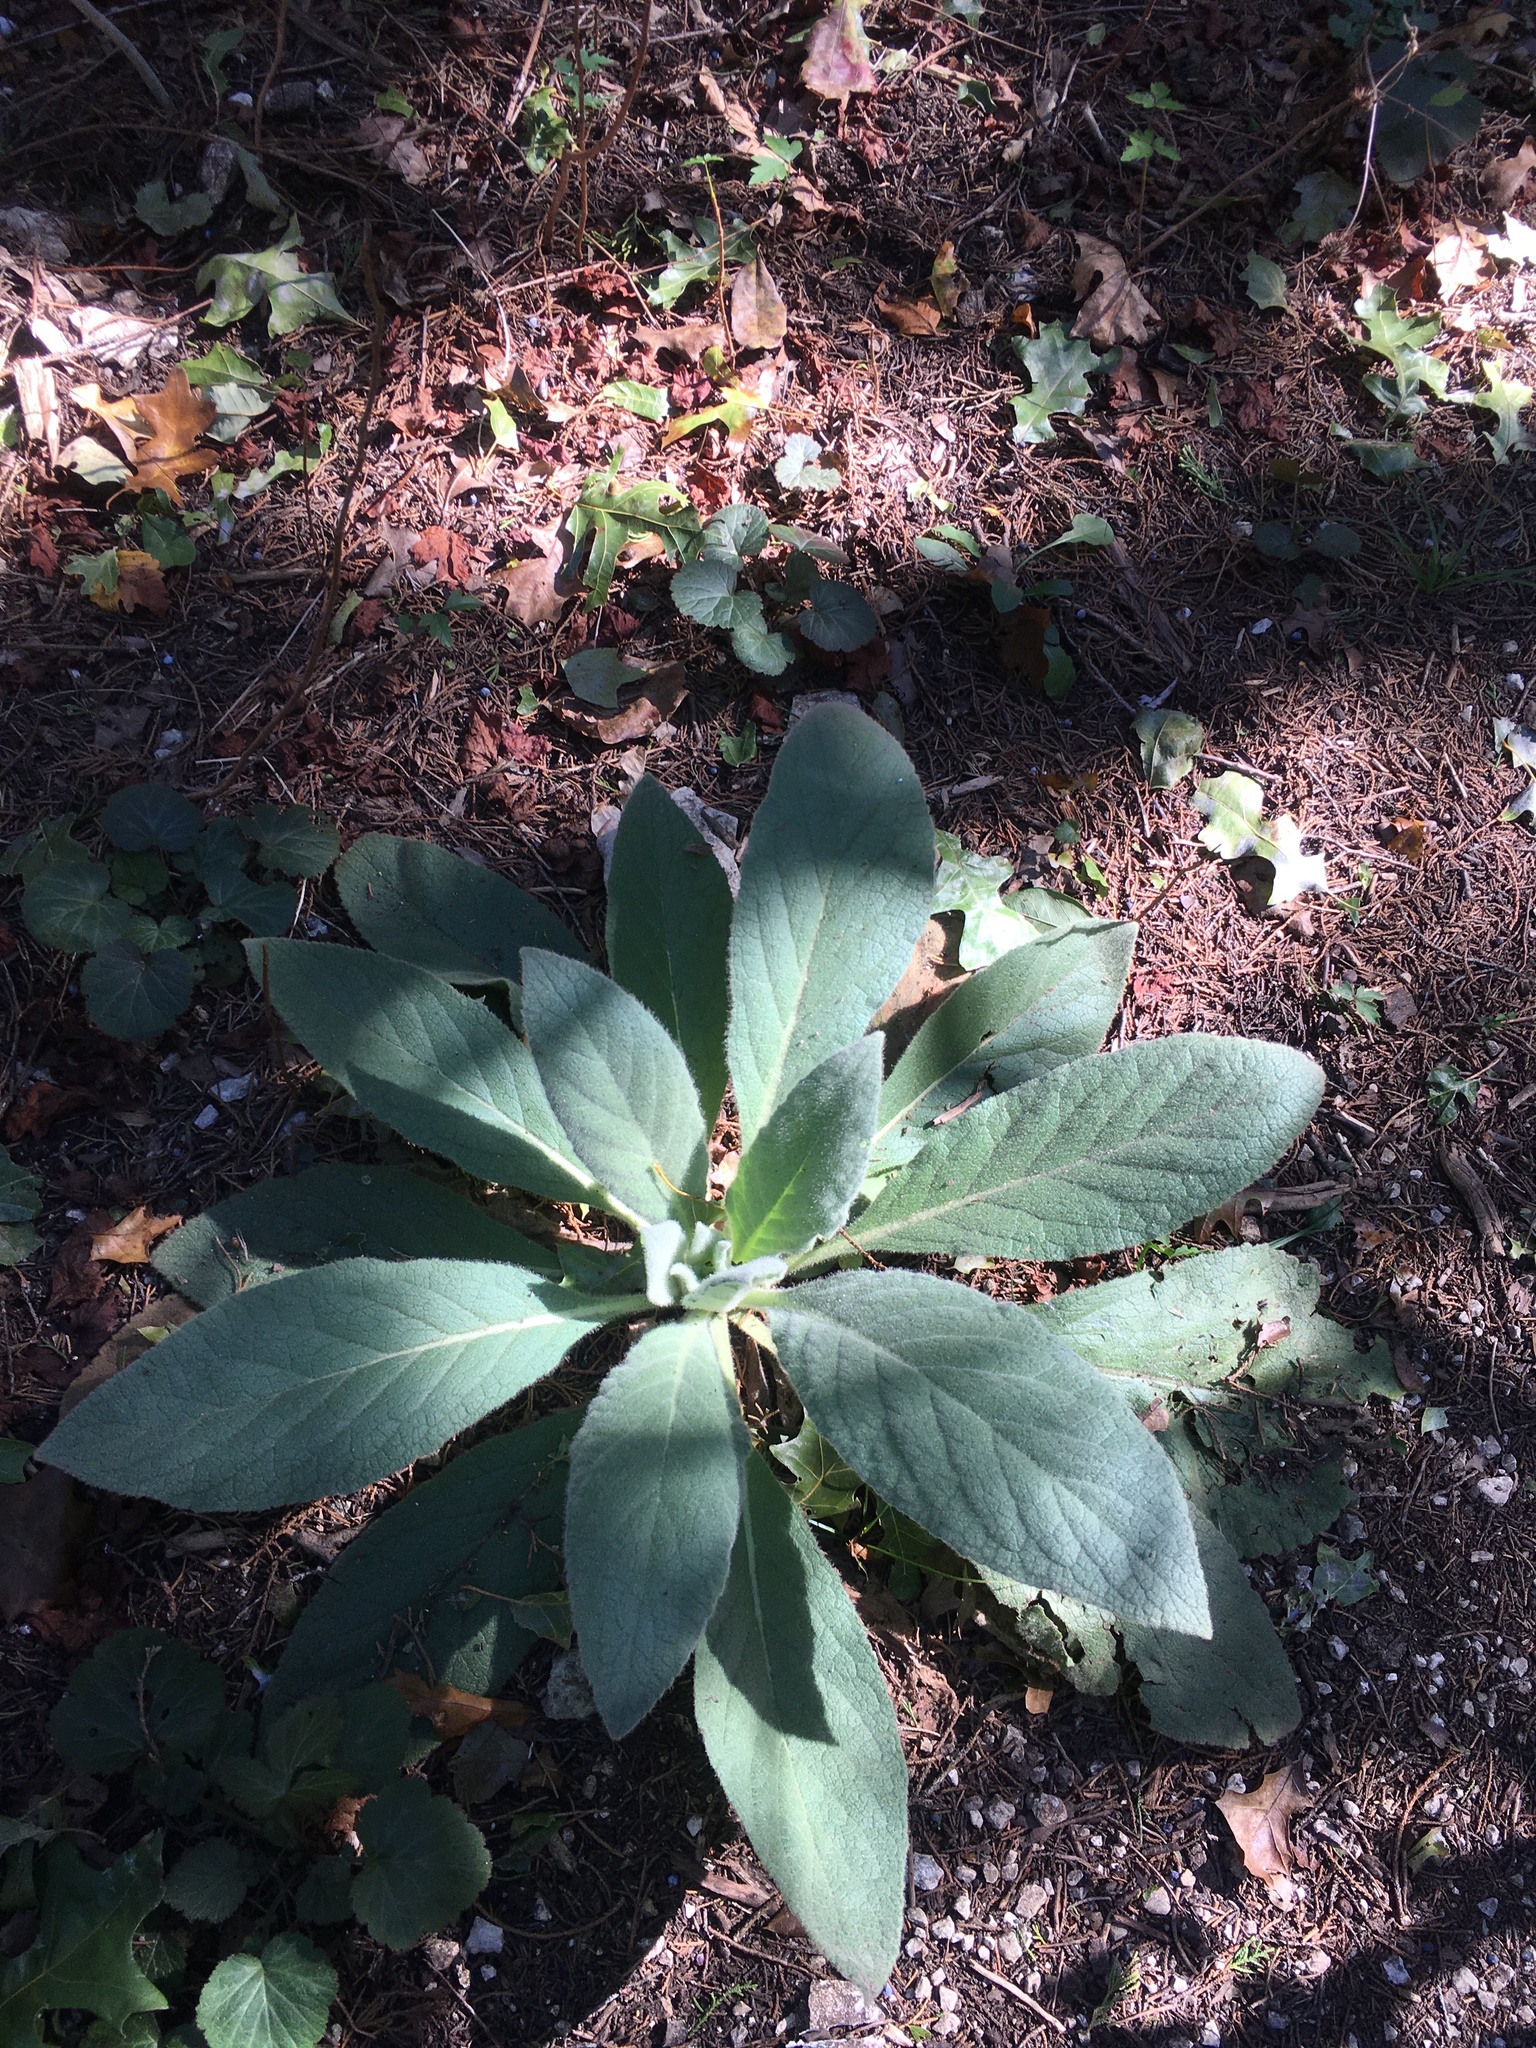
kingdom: Plantae
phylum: Tracheophyta
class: Magnoliopsida
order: Lamiales
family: Scrophulariaceae
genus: Verbascum
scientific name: Verbascum thapsus
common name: Common mullein
